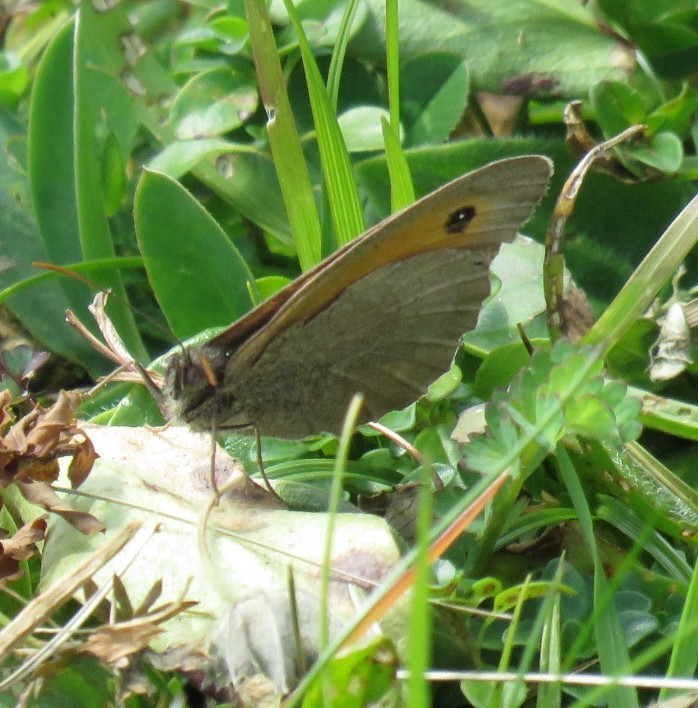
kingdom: Animalia
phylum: Arthropoda
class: Insecta
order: Lepidoptera
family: Nymphalidae
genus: Maniola
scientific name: Maniola jurtina
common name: Meadow brown
